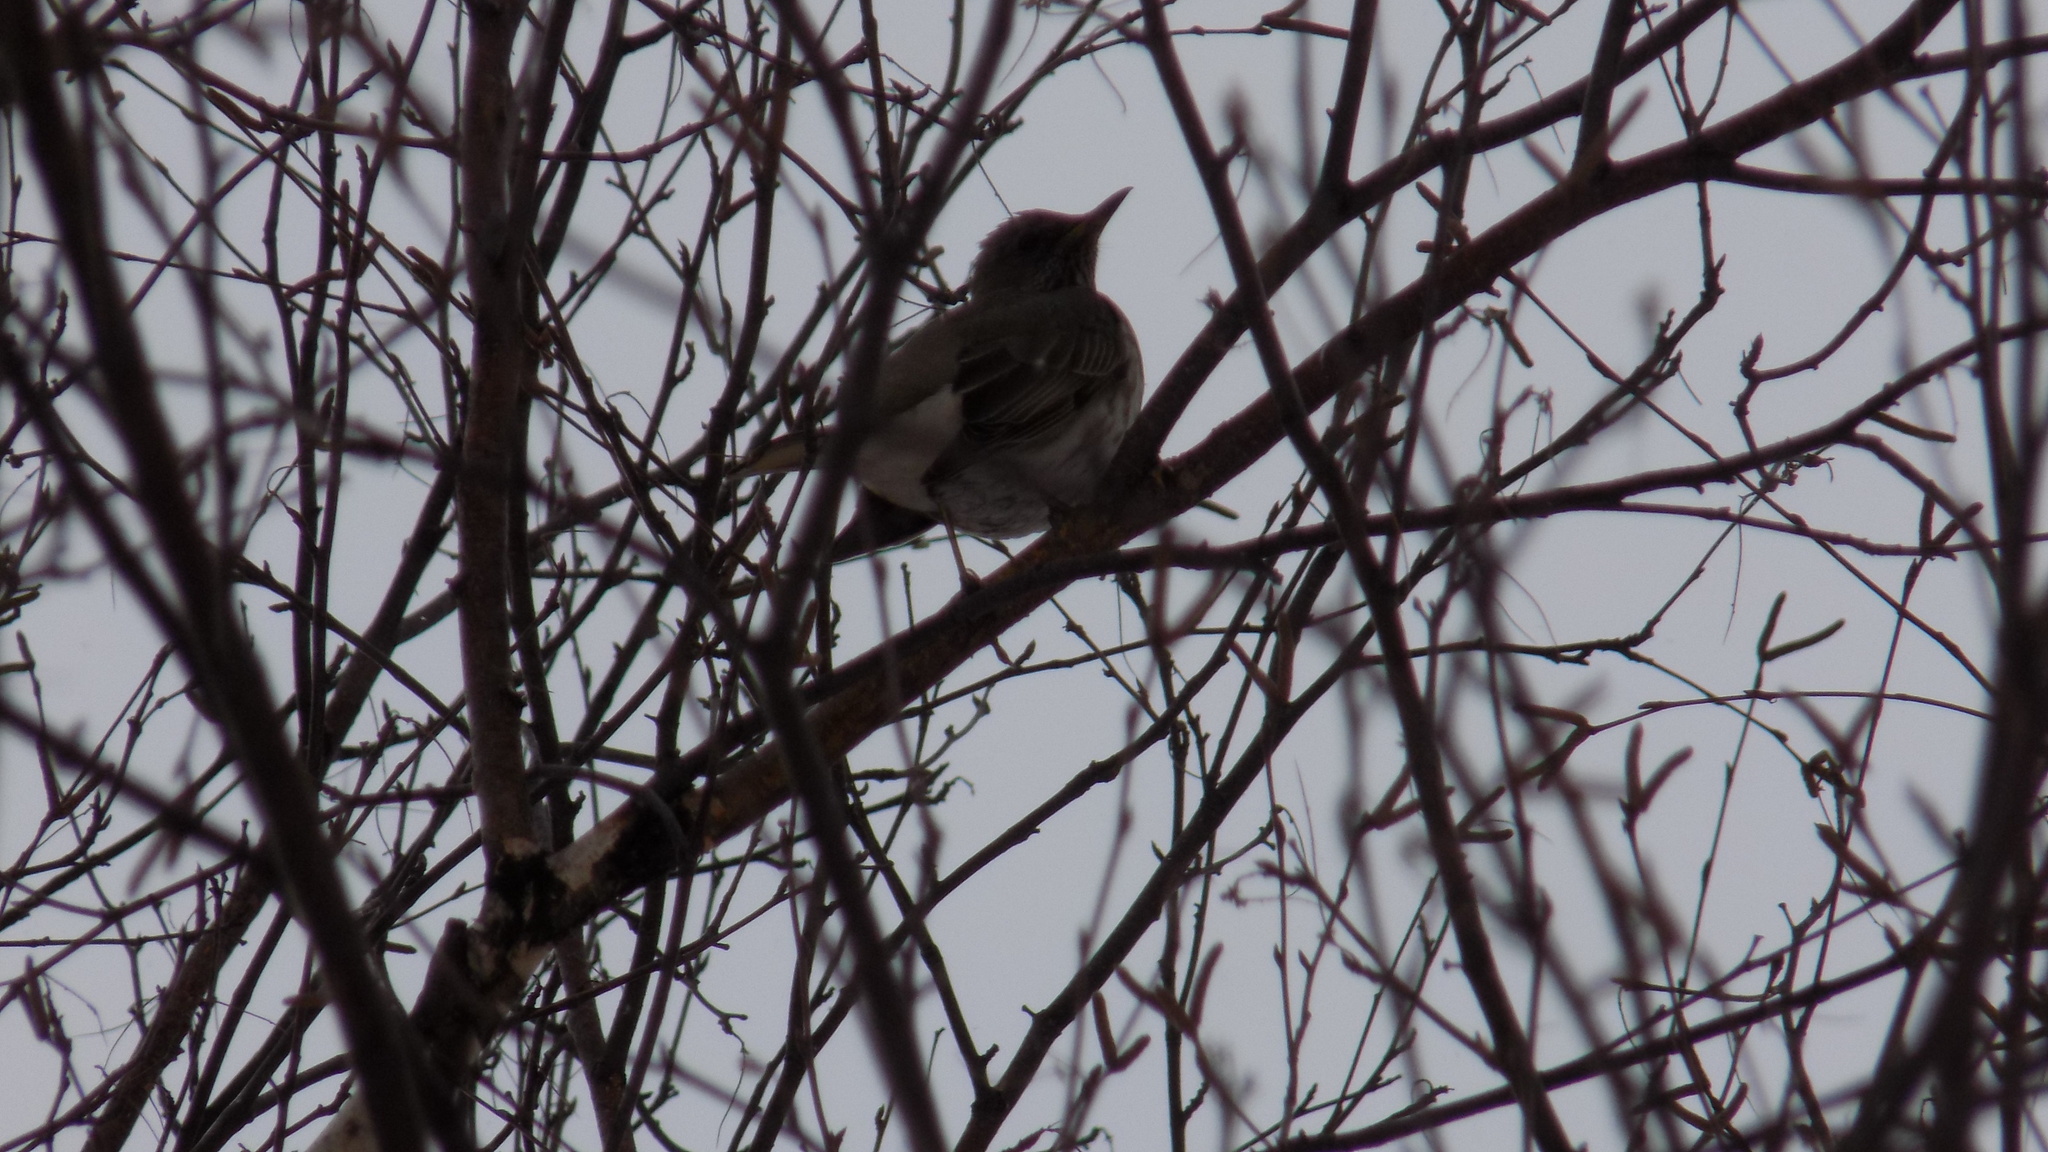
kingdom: Animalia
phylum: Chordata
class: Aves
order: Passeriformes
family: Turdidae
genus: Turdus
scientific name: Turdus atrogularis
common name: Black-throated thrush
